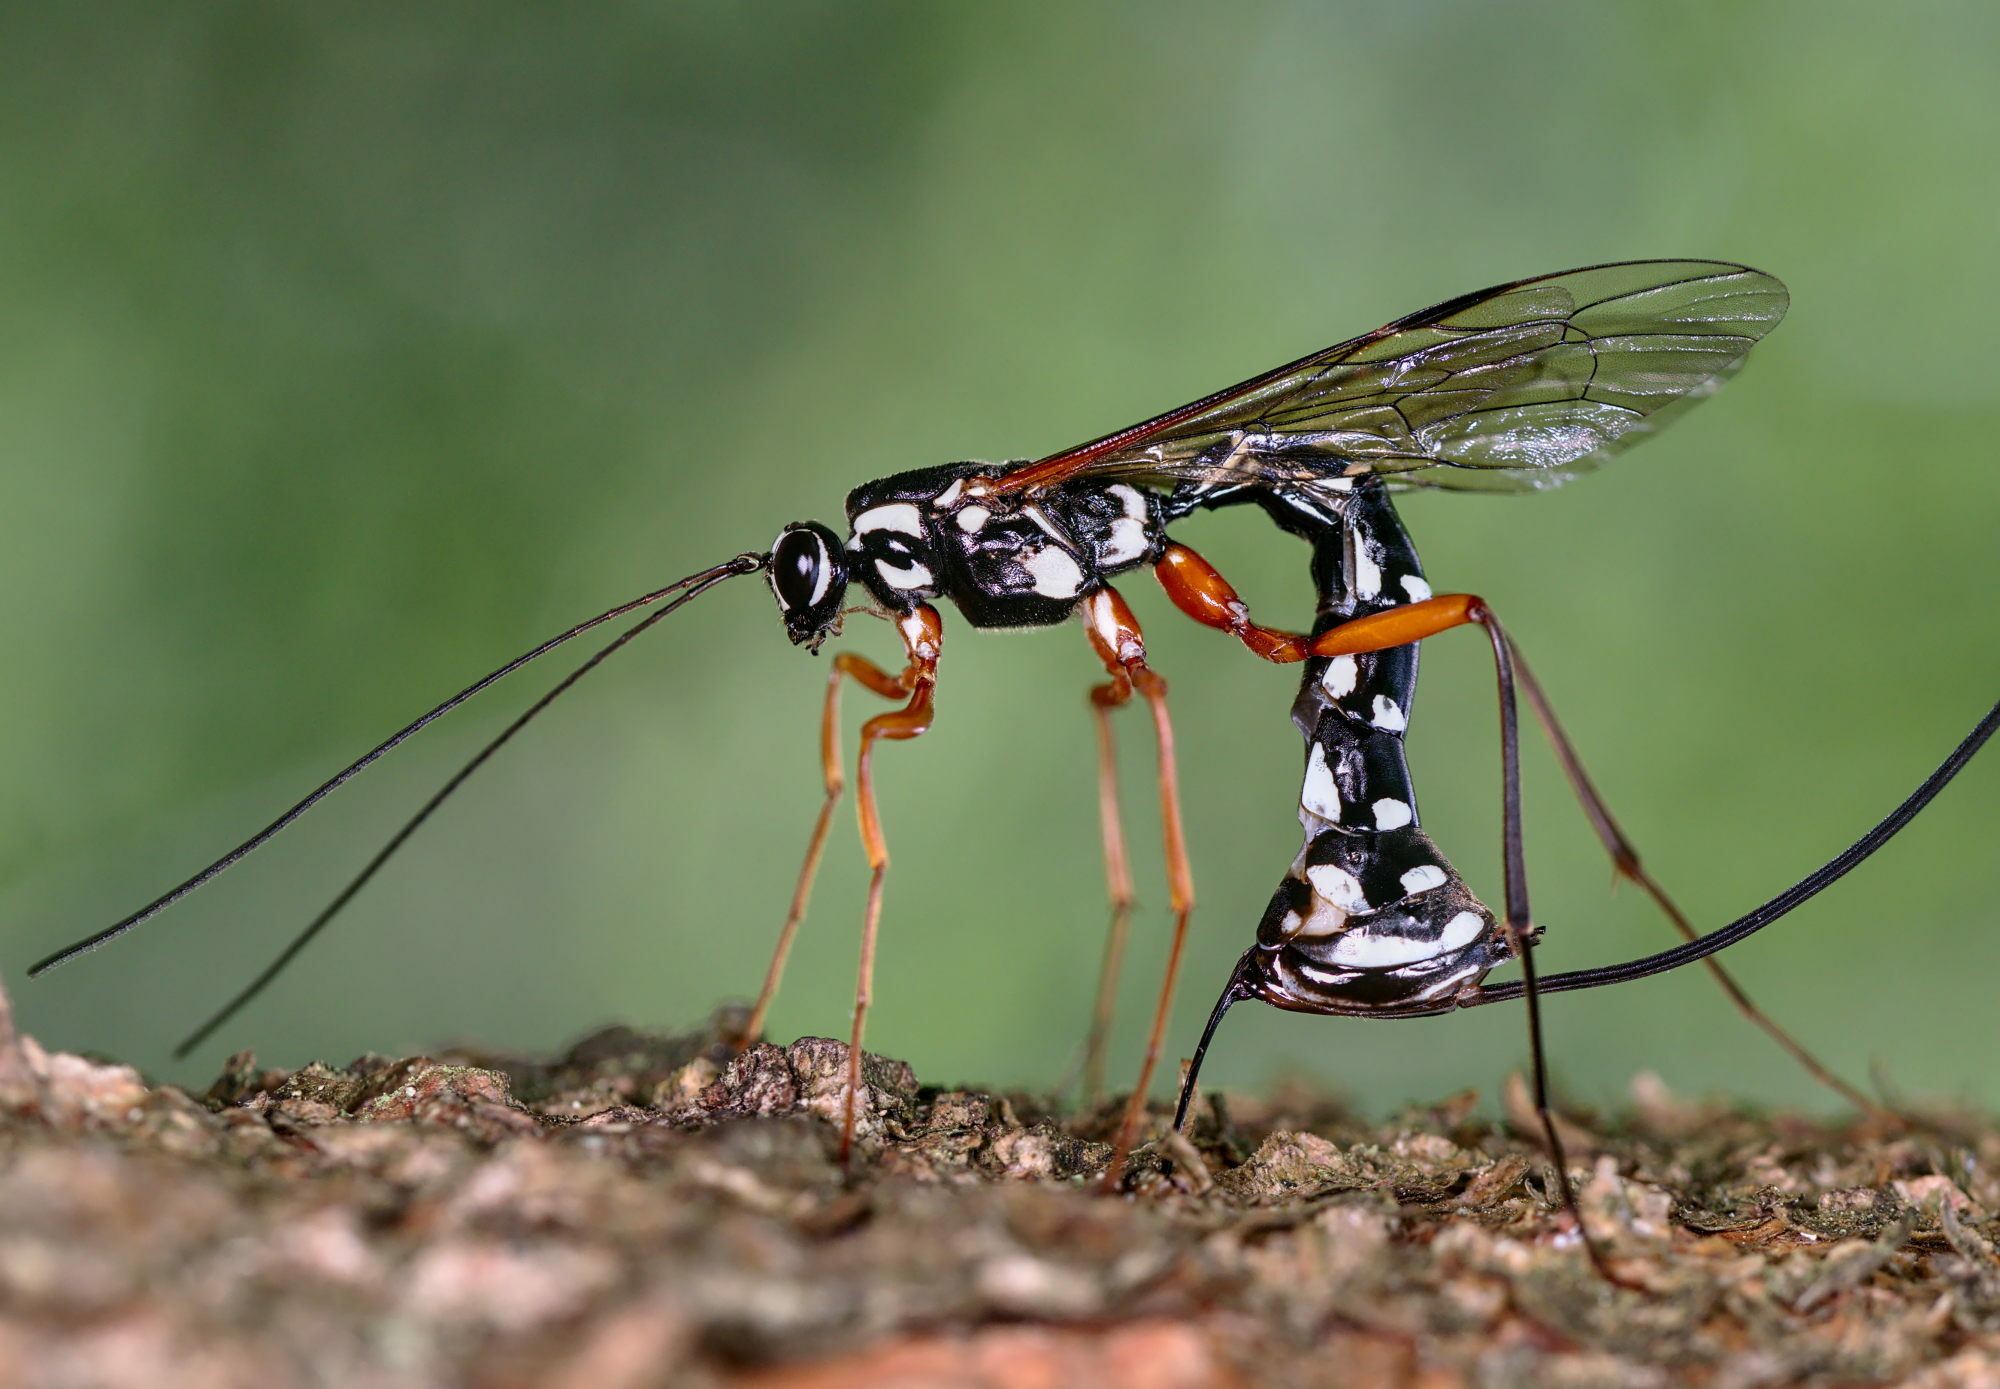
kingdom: Animalia
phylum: Arthropoda
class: Insecta
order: Hymenoptera
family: Ichneumonidae
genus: Rhyssa
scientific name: Rhyssa persuasoria
